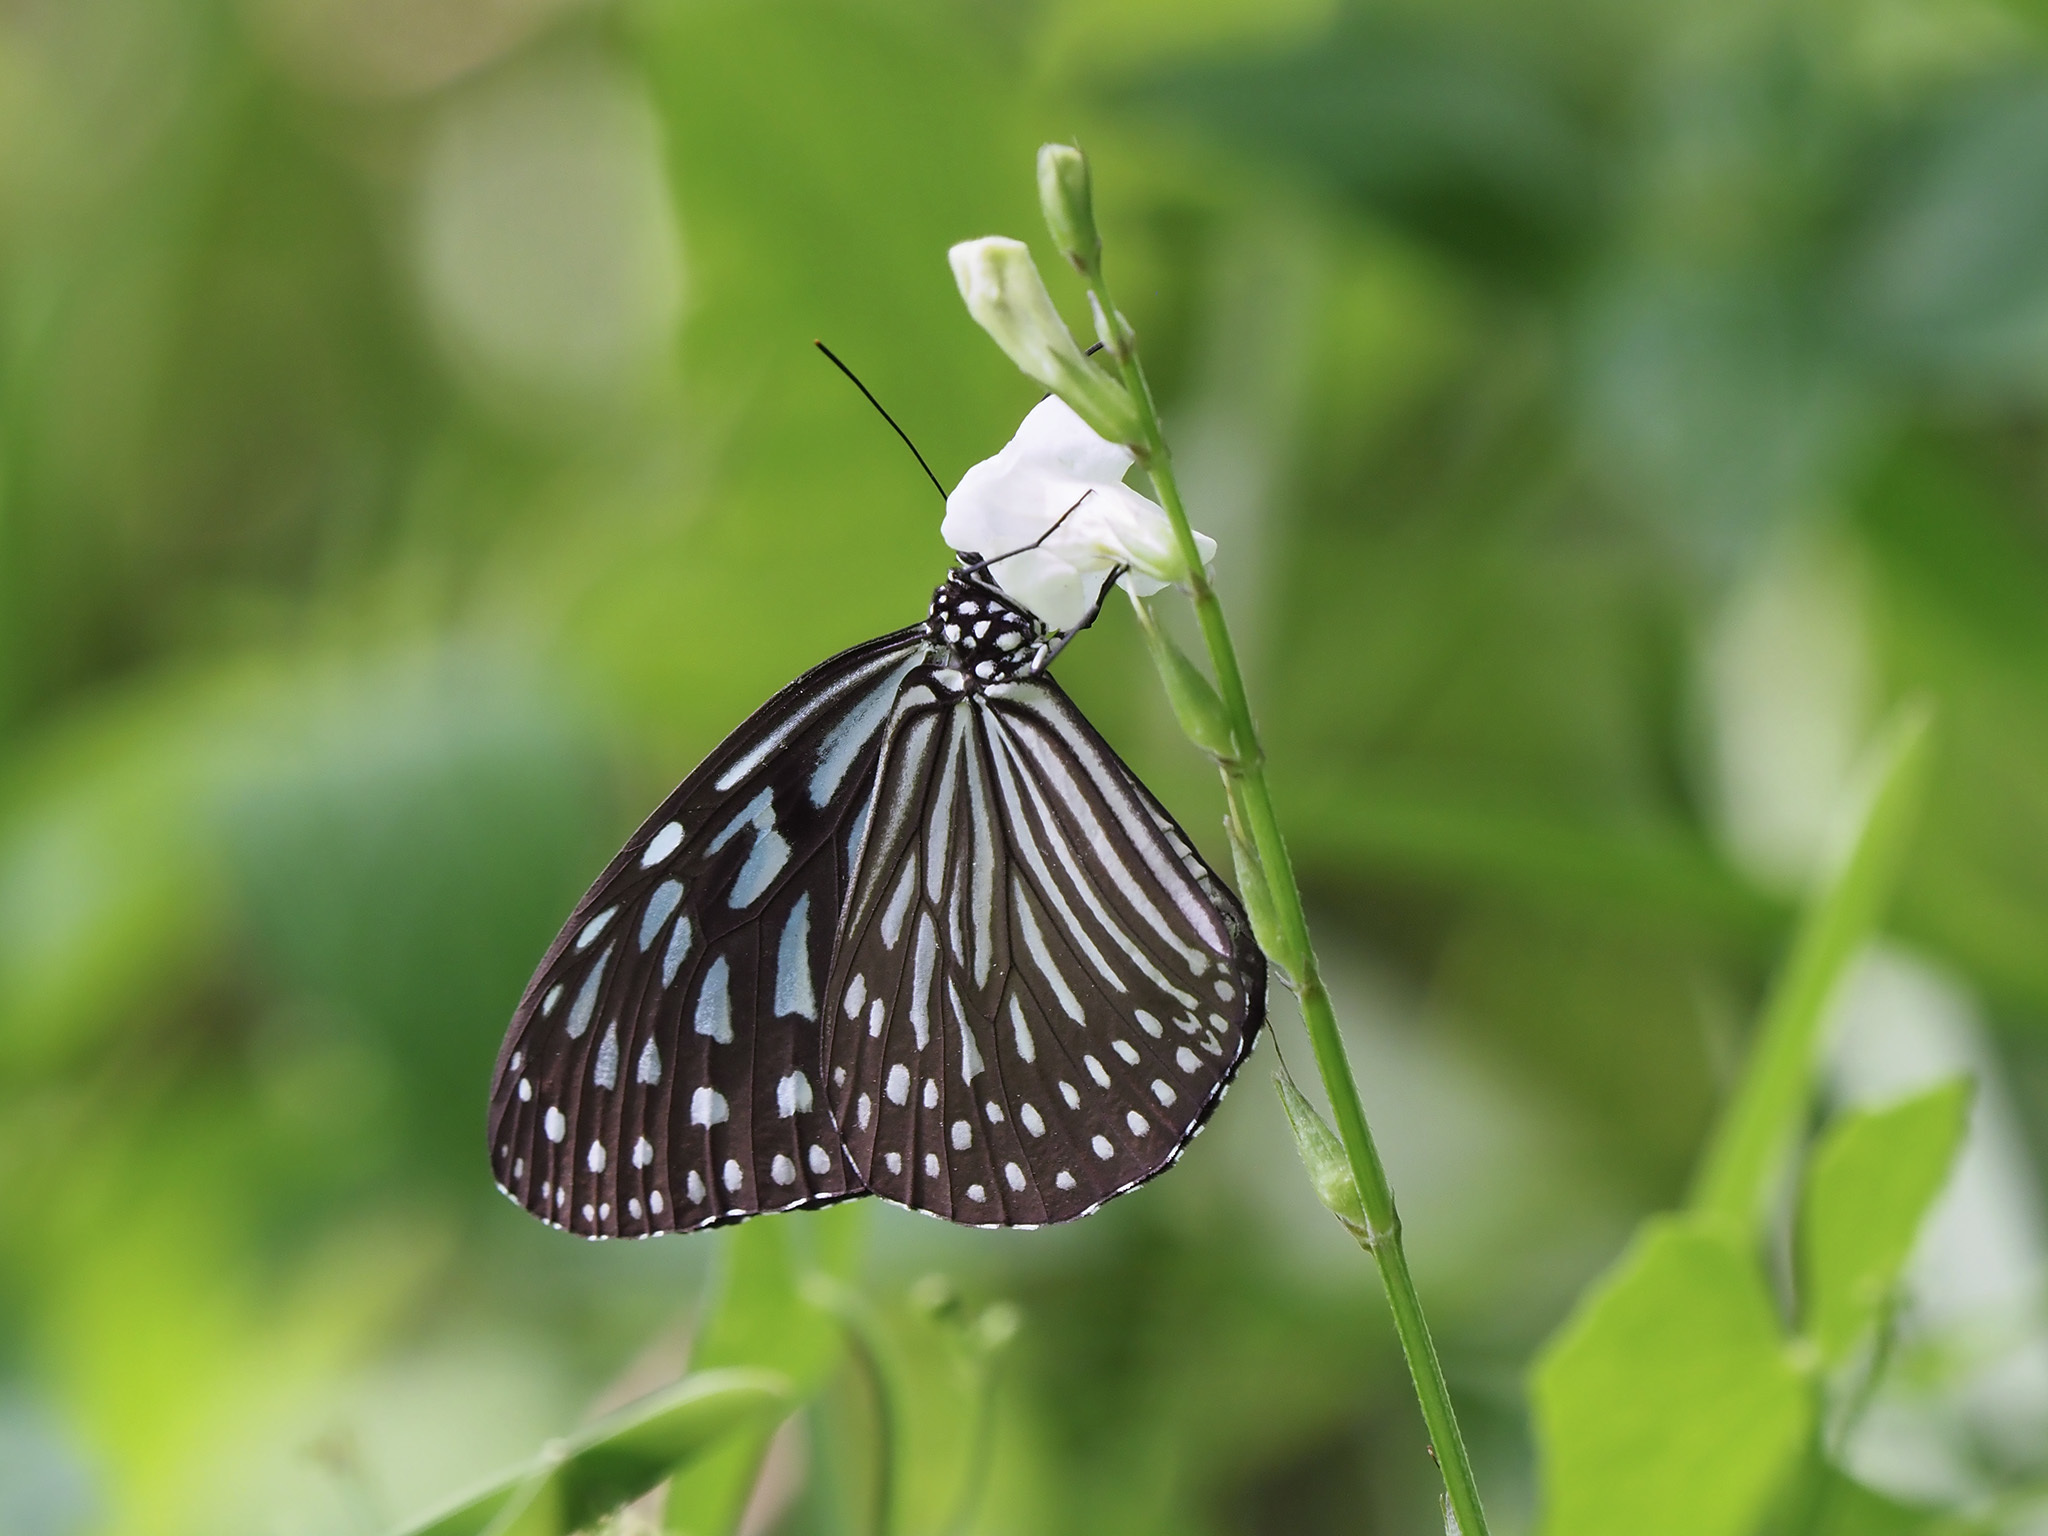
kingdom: Animalia
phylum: Arthropoda
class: Insecta
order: Lepidoptera
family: Nymphalidae
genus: Ideopsis
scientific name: Ideopsis vulgaris
